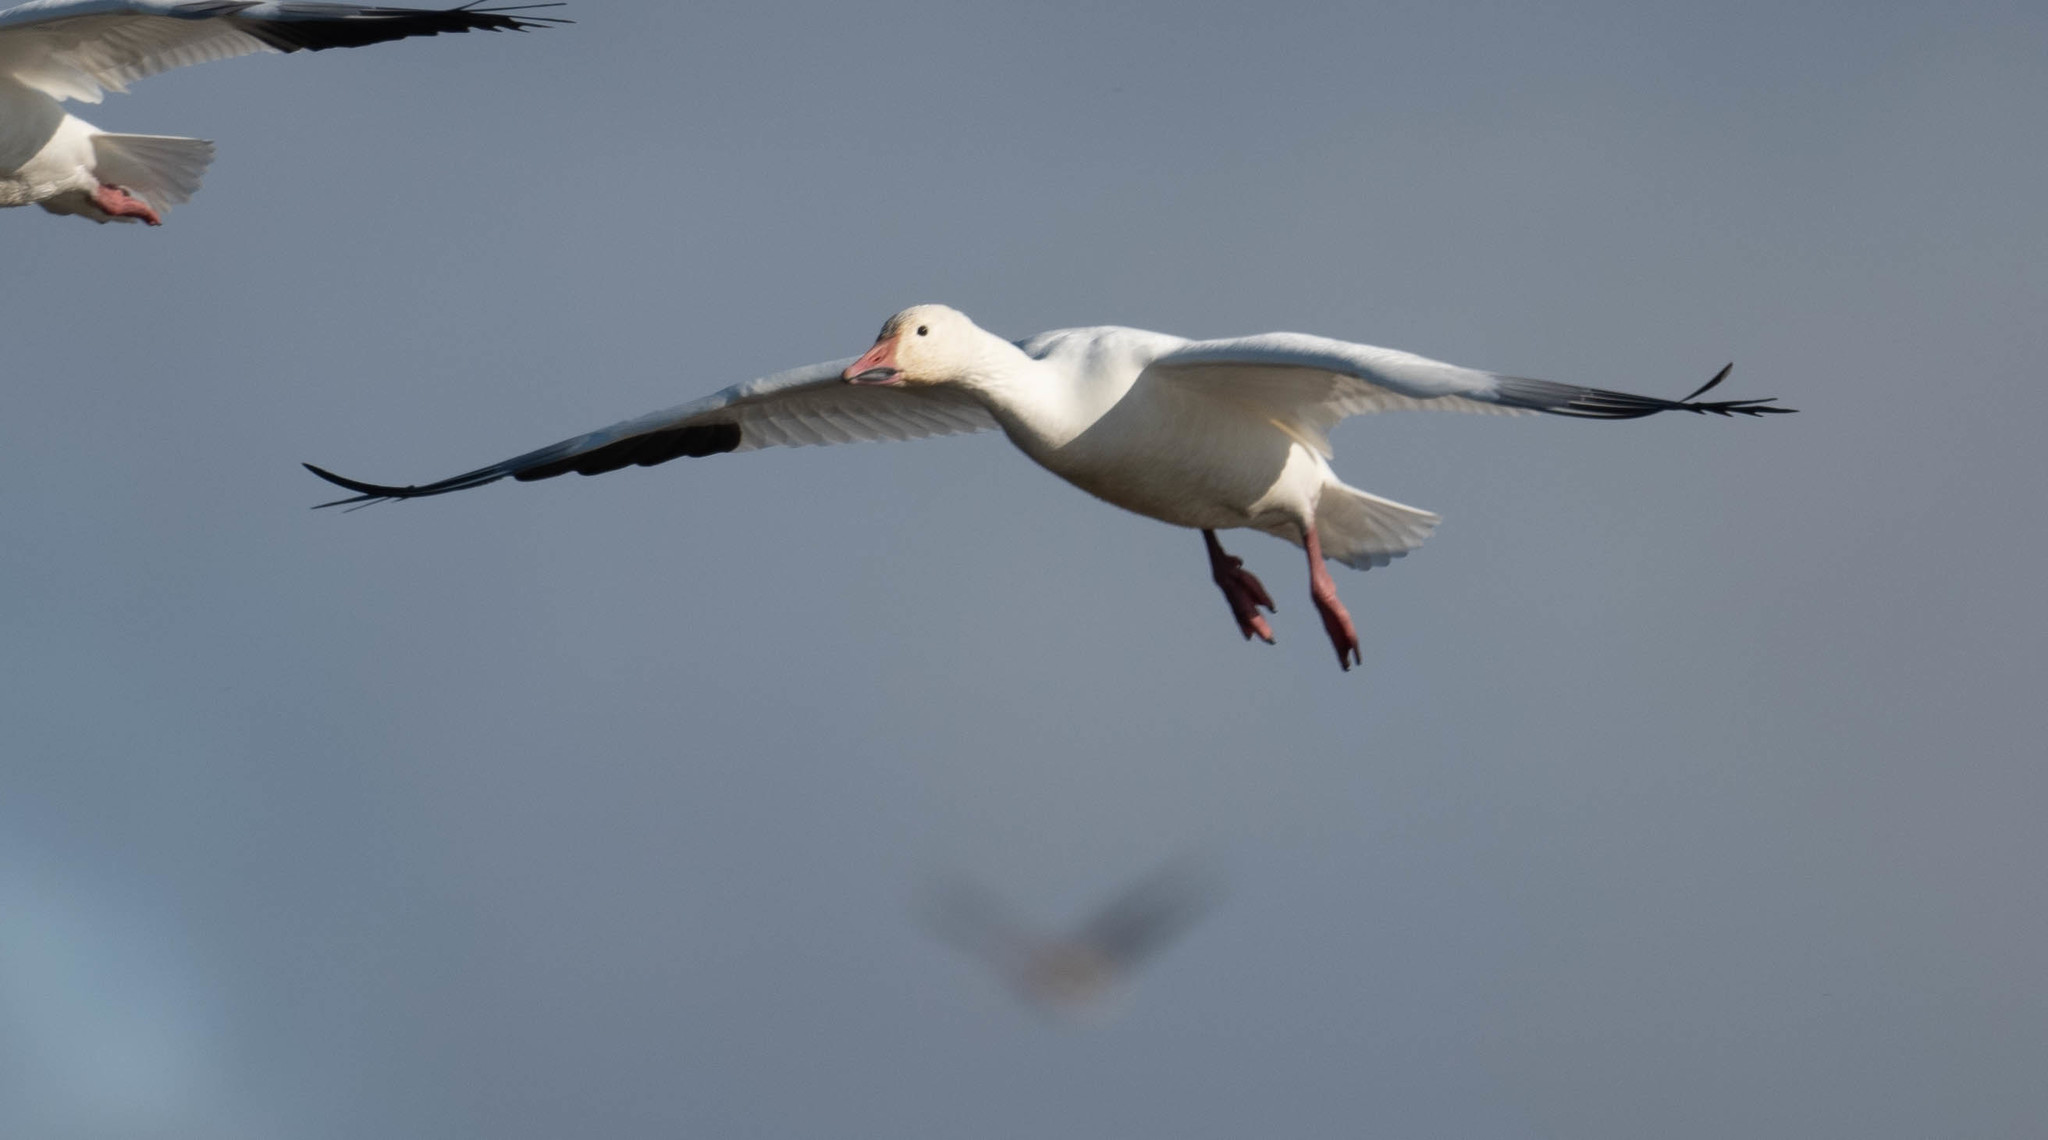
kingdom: Animalia
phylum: Chordata
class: Aves
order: Anseriformes
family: Anatidae
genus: Anser
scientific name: Anser caerulescens
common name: Snow goose
